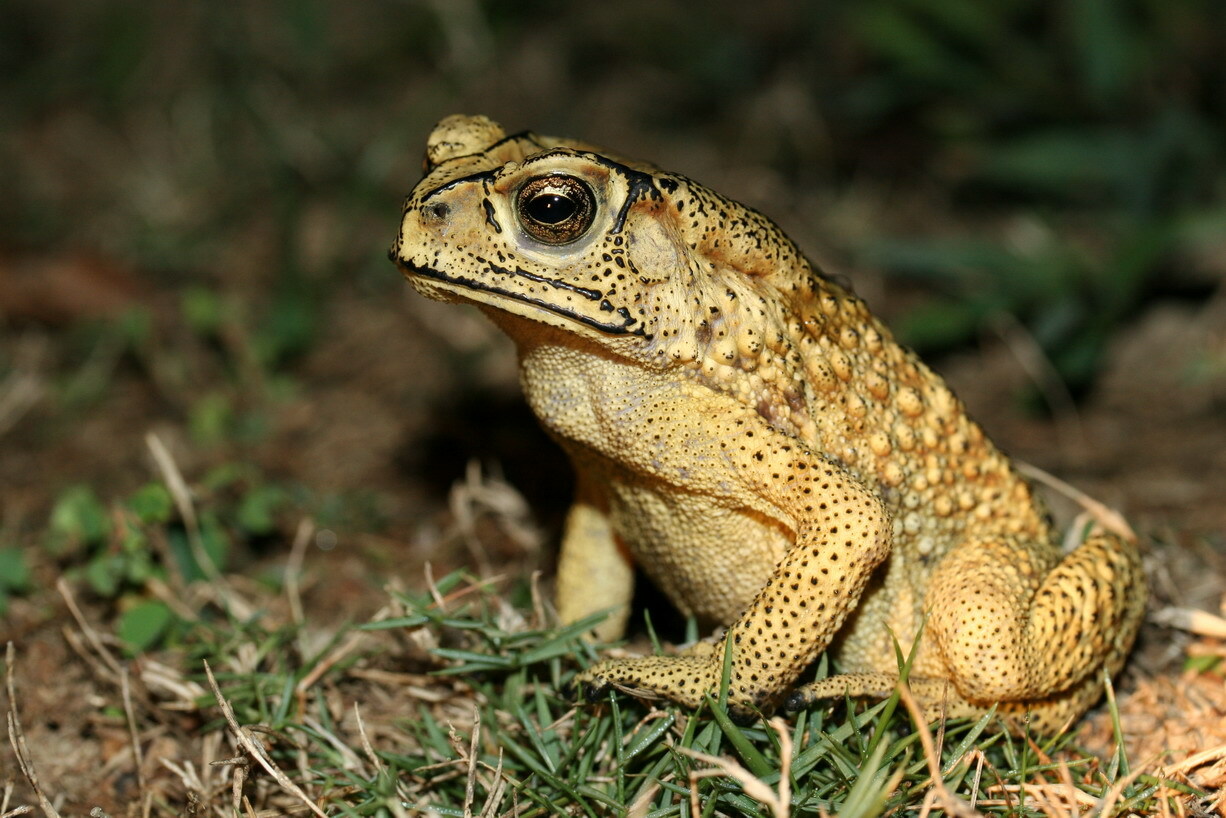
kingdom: Animalia
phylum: Chordata
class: Amphibia
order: Anura
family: Bufonidae
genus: Duttaphrynus
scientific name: Duttaphrynus melanostictus
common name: Common sunda toad
